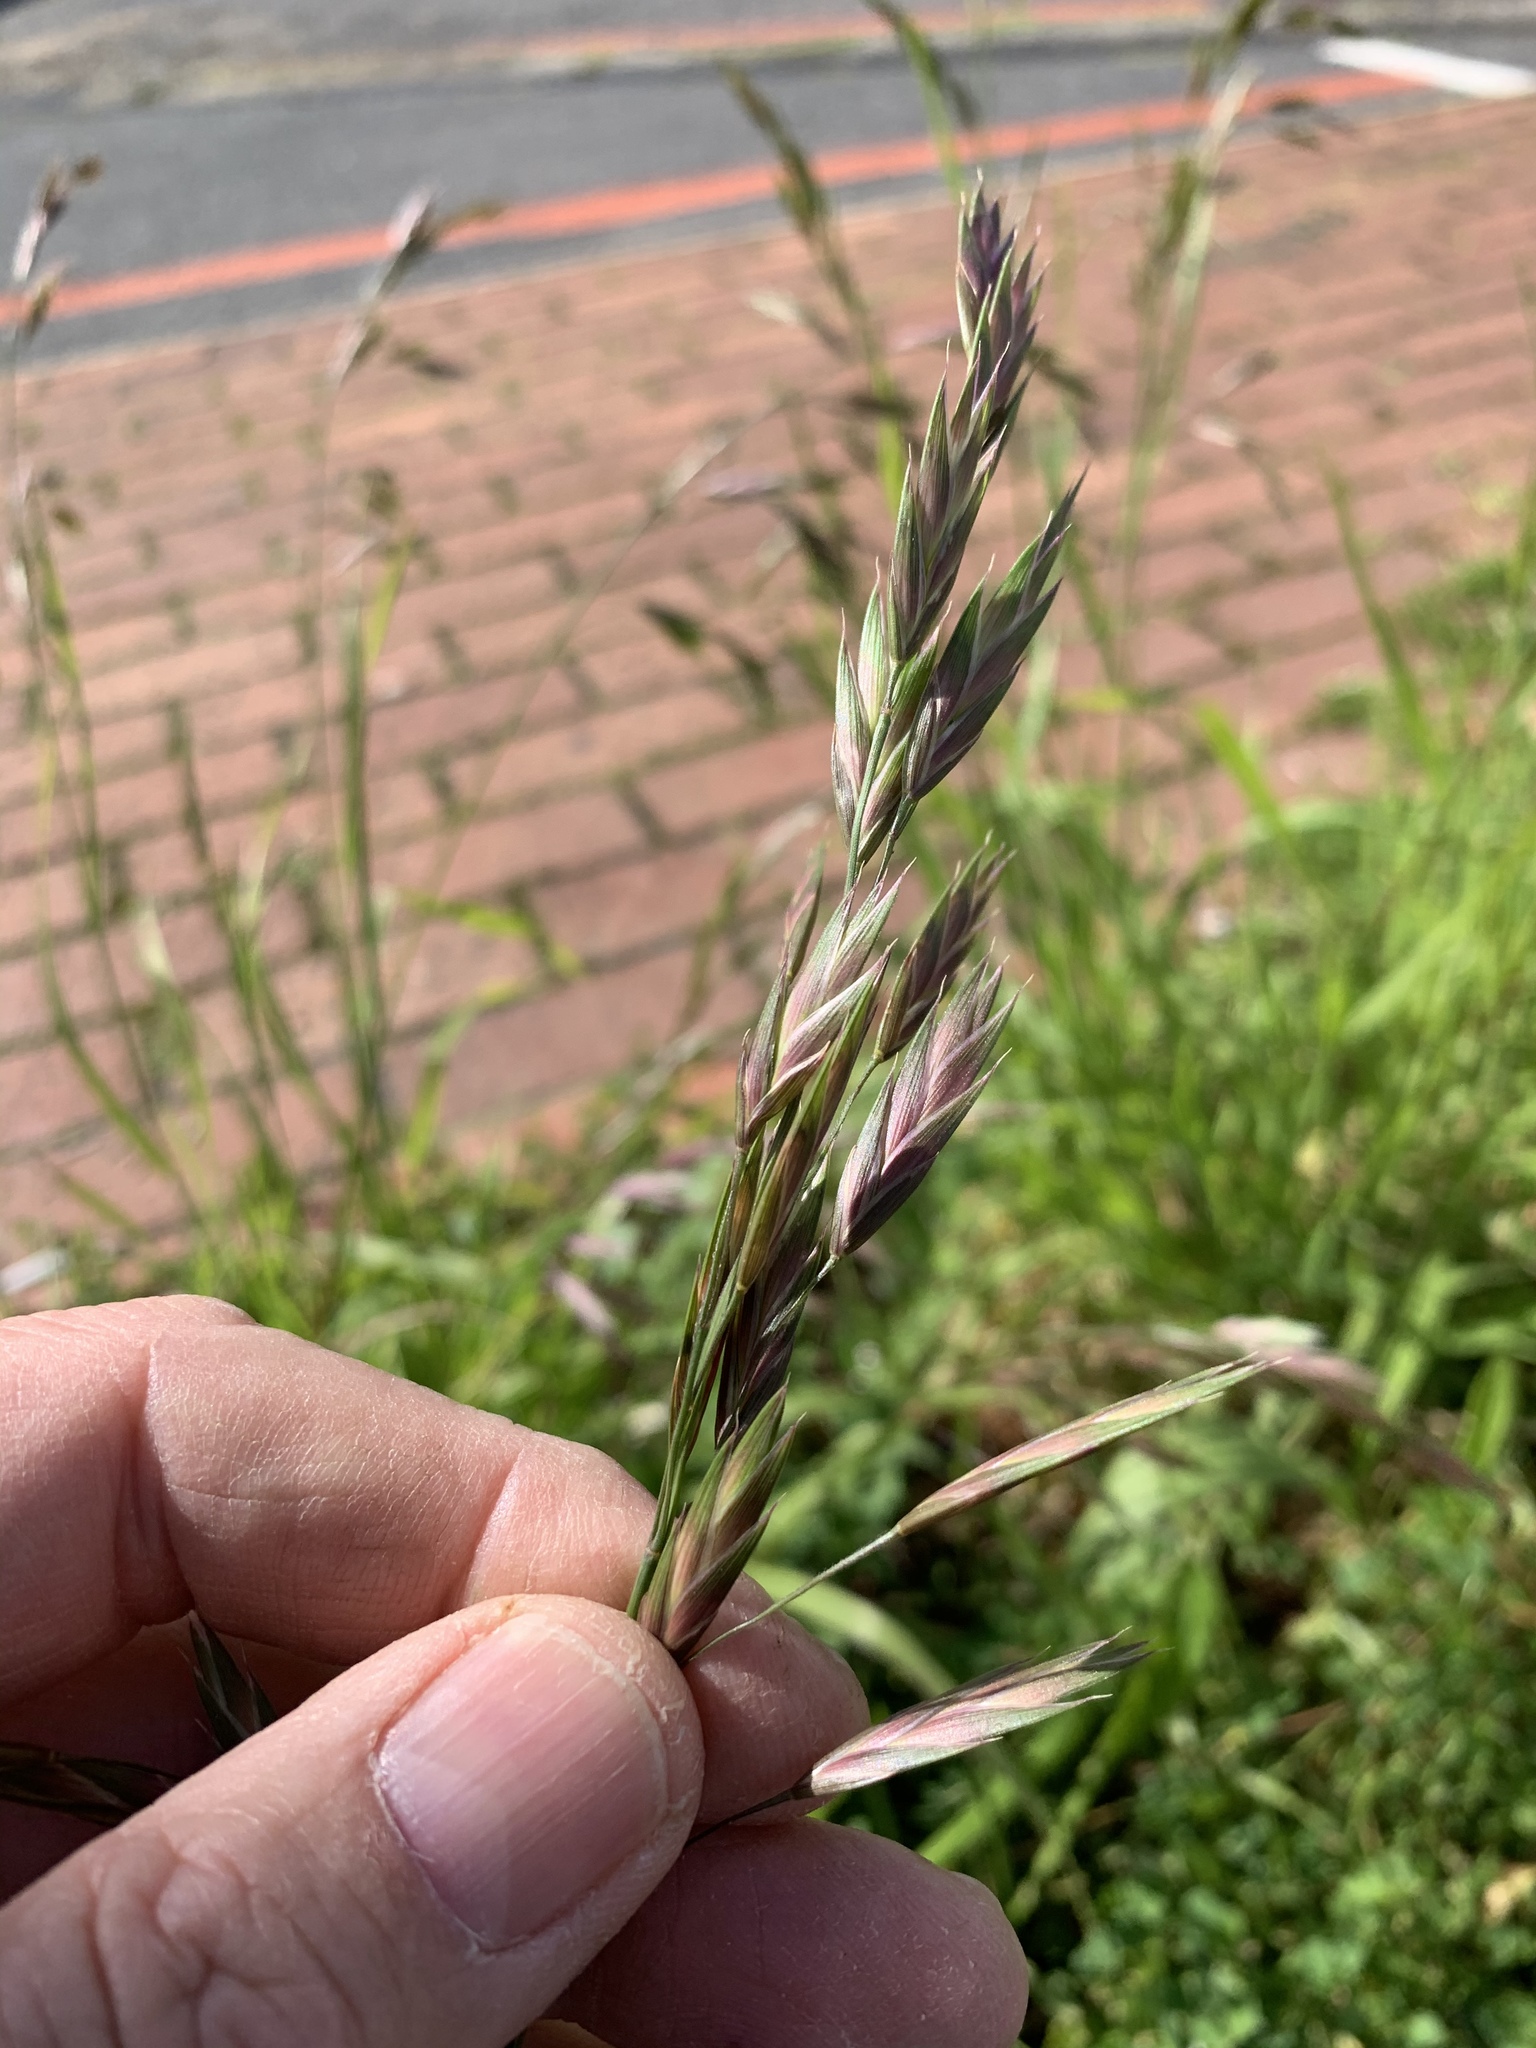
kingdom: Plantae
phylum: Tracheophyta
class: Liliopsida
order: Poales
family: Poaceae
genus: Bromus
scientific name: Bromus catharticus
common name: Rescuegrass
